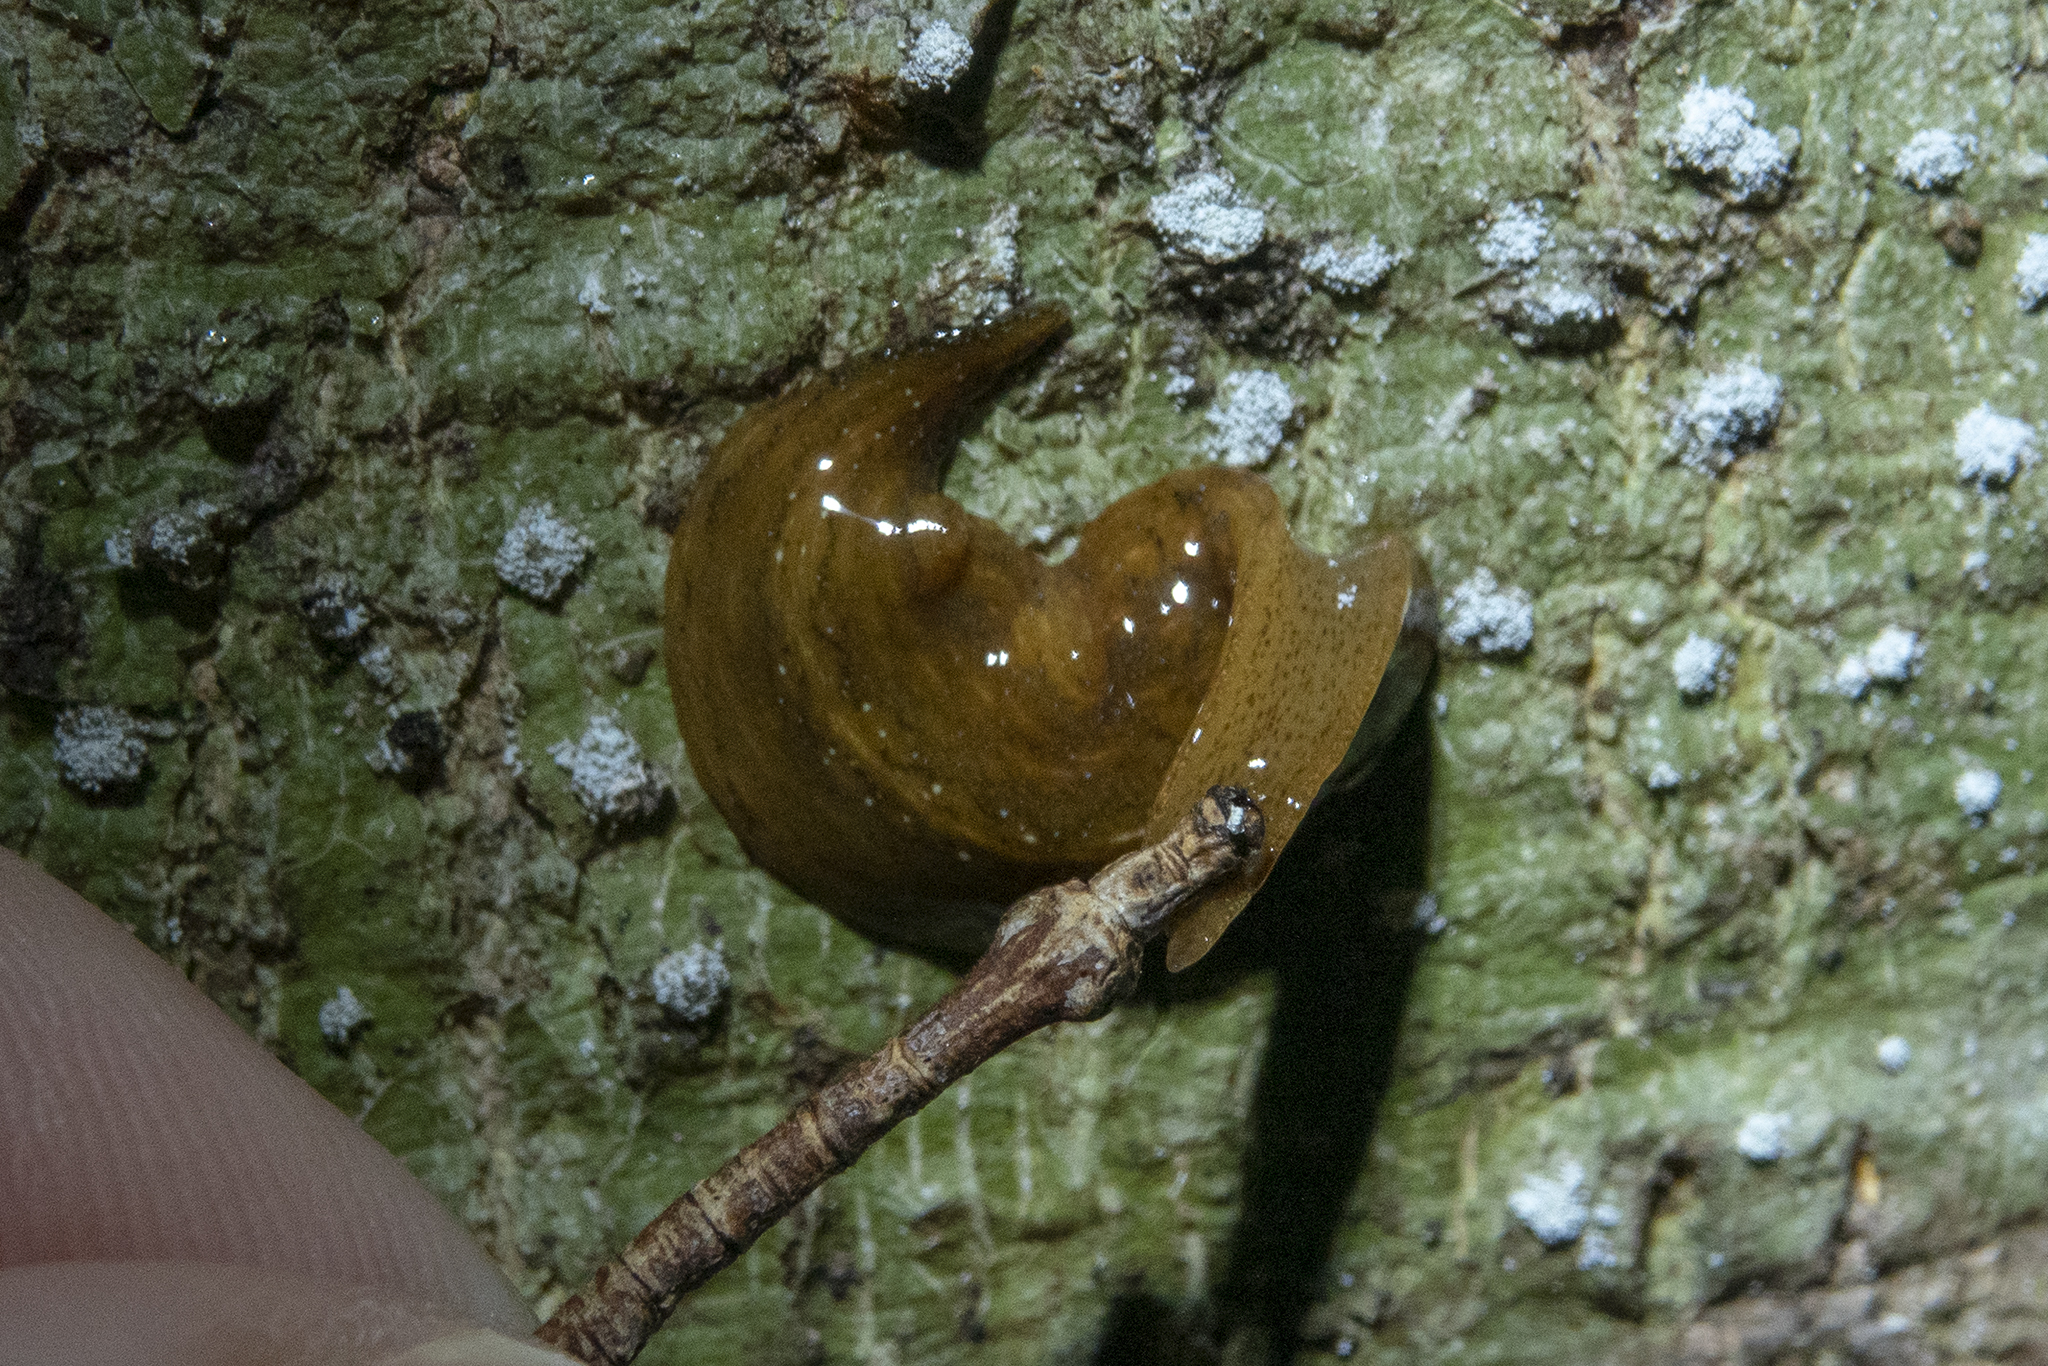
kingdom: Animalia
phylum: Platyhelminthes
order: Tricladida
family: Geoplanidae
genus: Australopacifica
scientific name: Australopacifica
